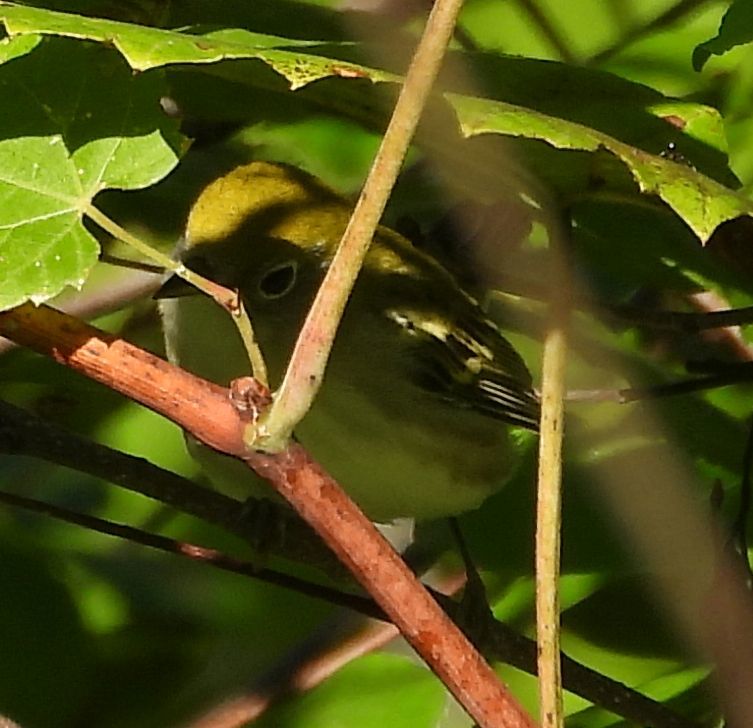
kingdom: Animalia
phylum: Chordata
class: Aves
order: Passeriformes
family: Parulidae
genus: Setophaga
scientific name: Setophaga pensylvanica
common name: Chestnut-sided warbler
